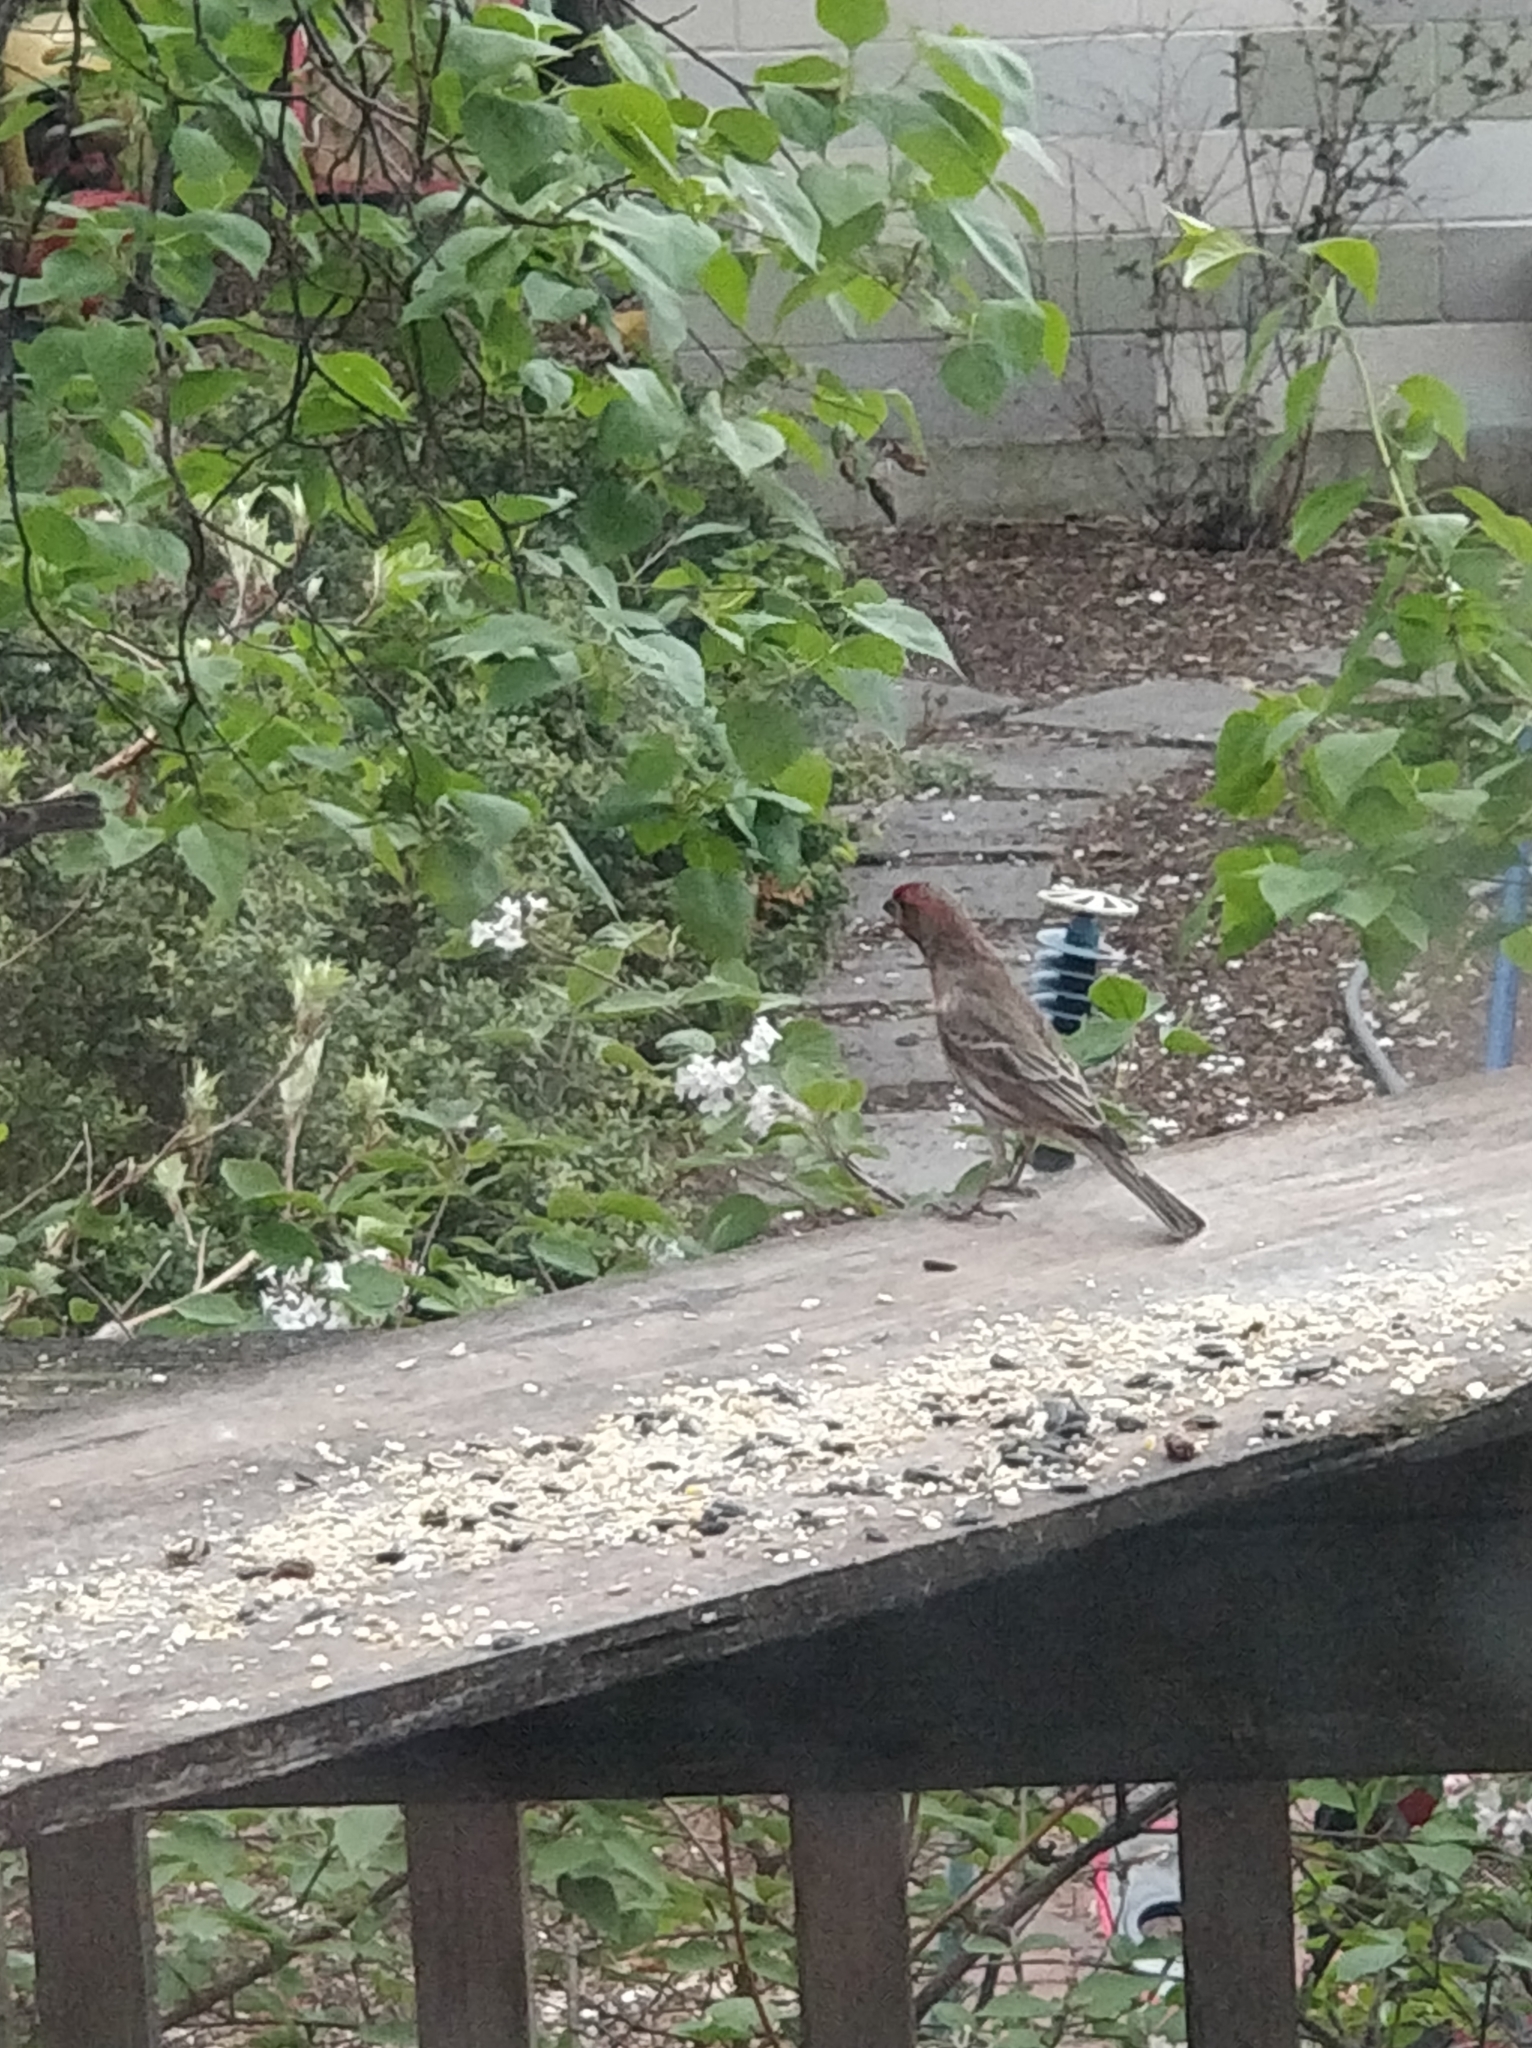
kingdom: Animalia
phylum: Chordata
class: Aves
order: Passeriformes
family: Fringillidae
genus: Haemorhous
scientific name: Haemorhous mexicanus
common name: House finch
